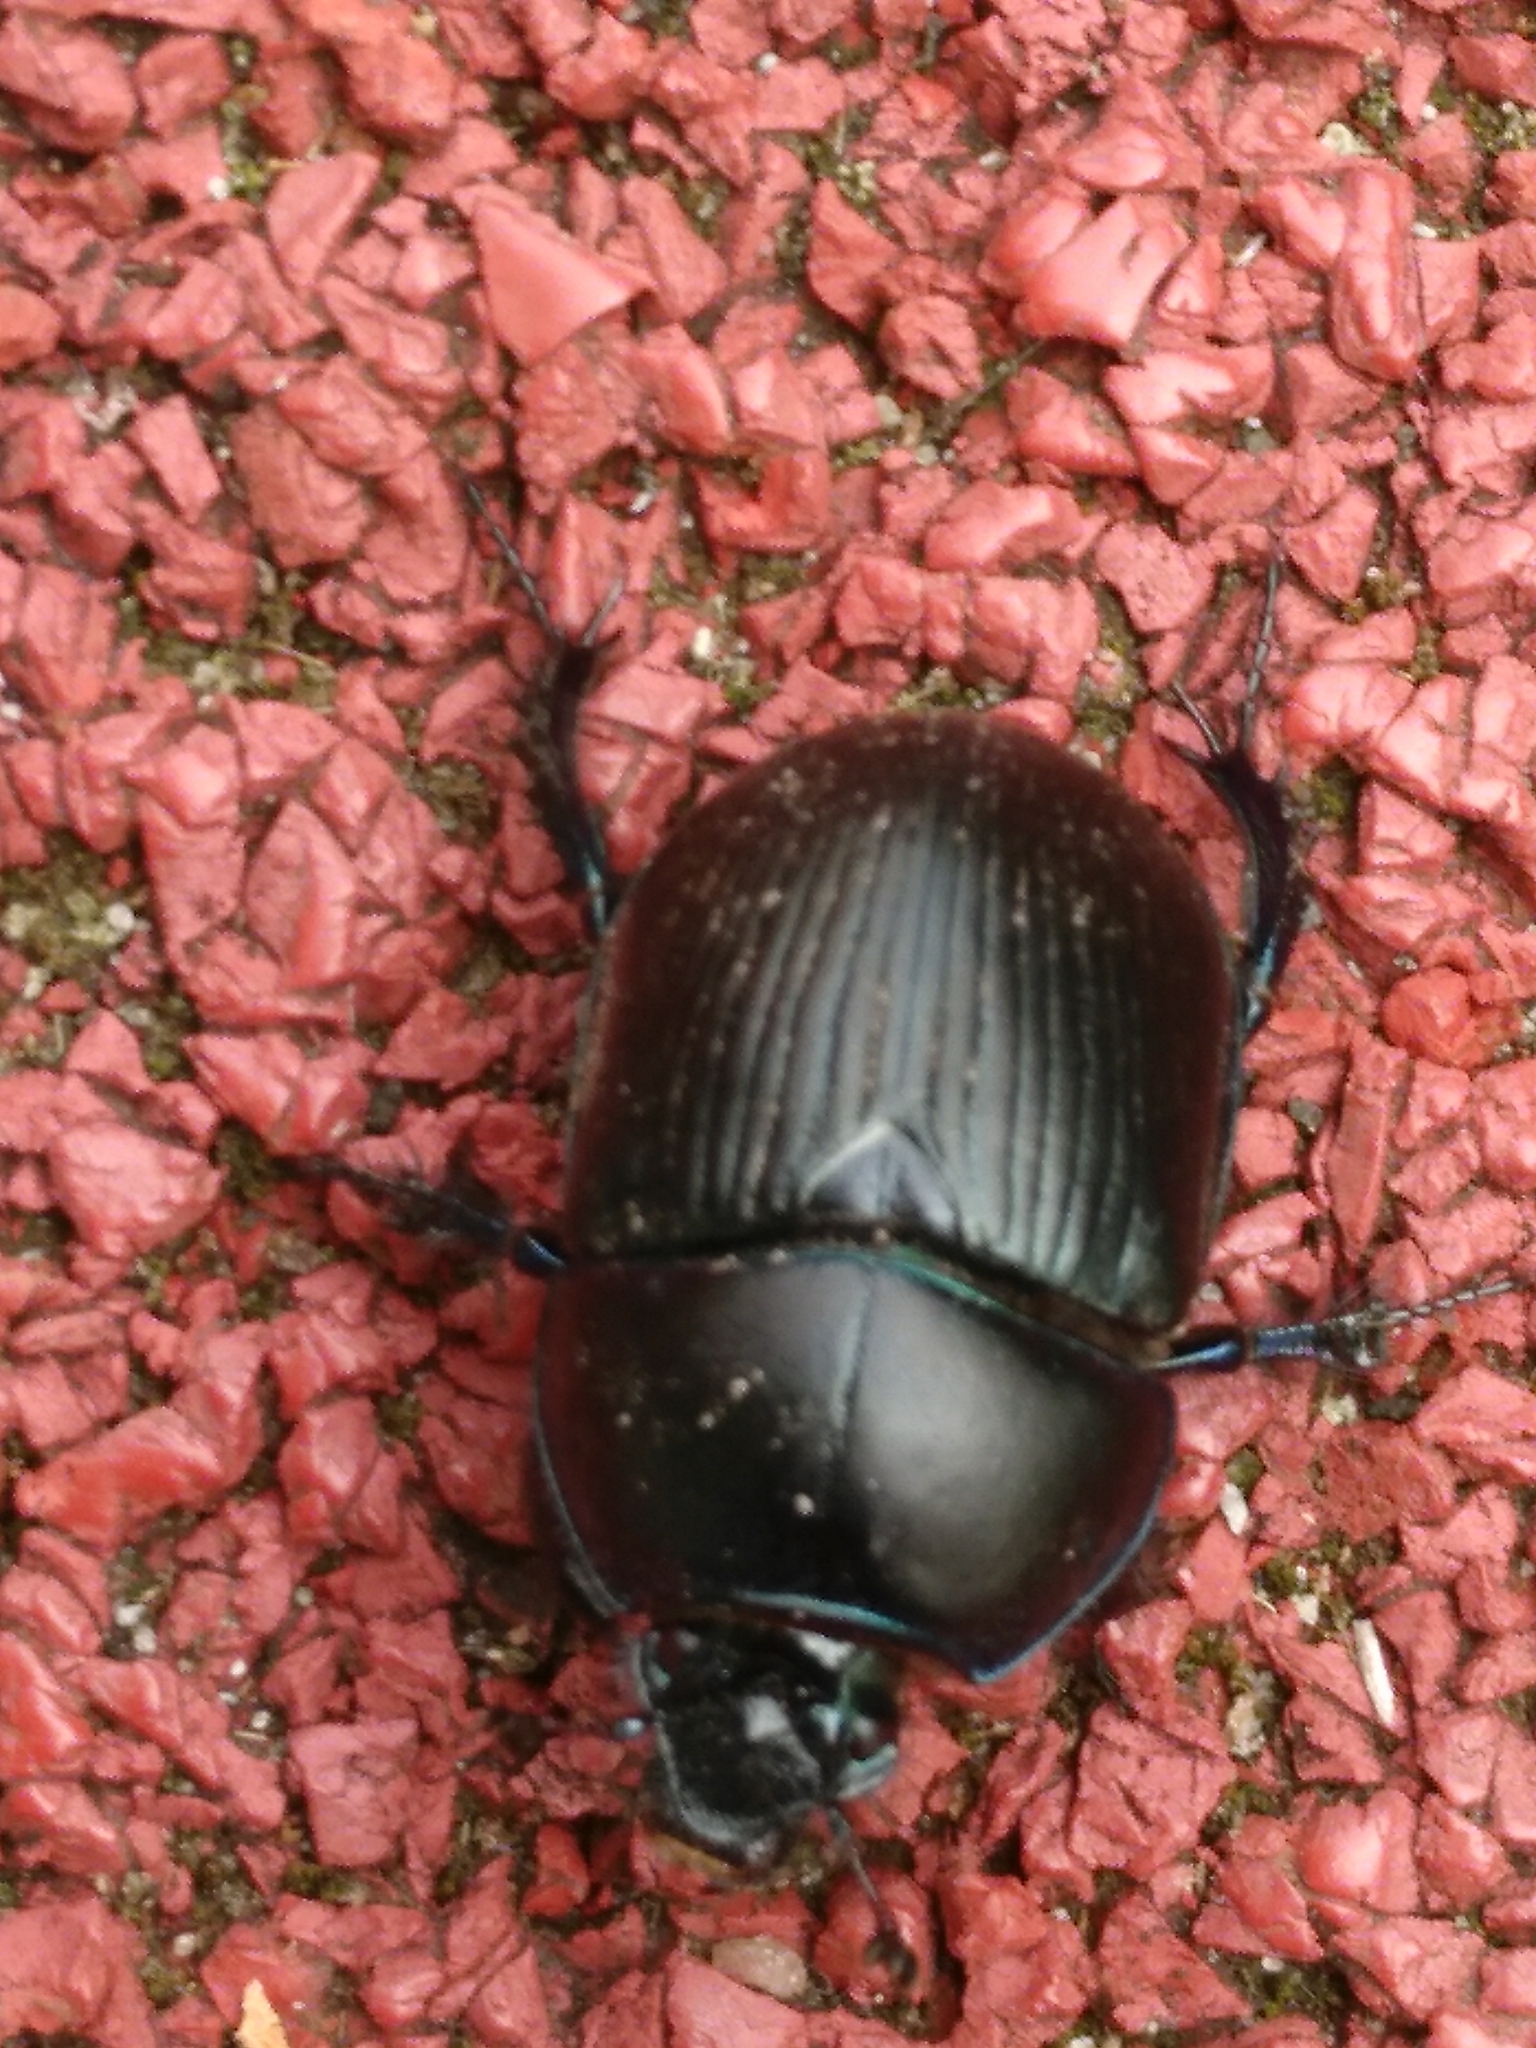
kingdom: Animalia
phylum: Arthropoda
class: Insecta
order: Coleoptera
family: Geotrupidae
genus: Anoplotrupes
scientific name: Anoplotrupes stercorosus
